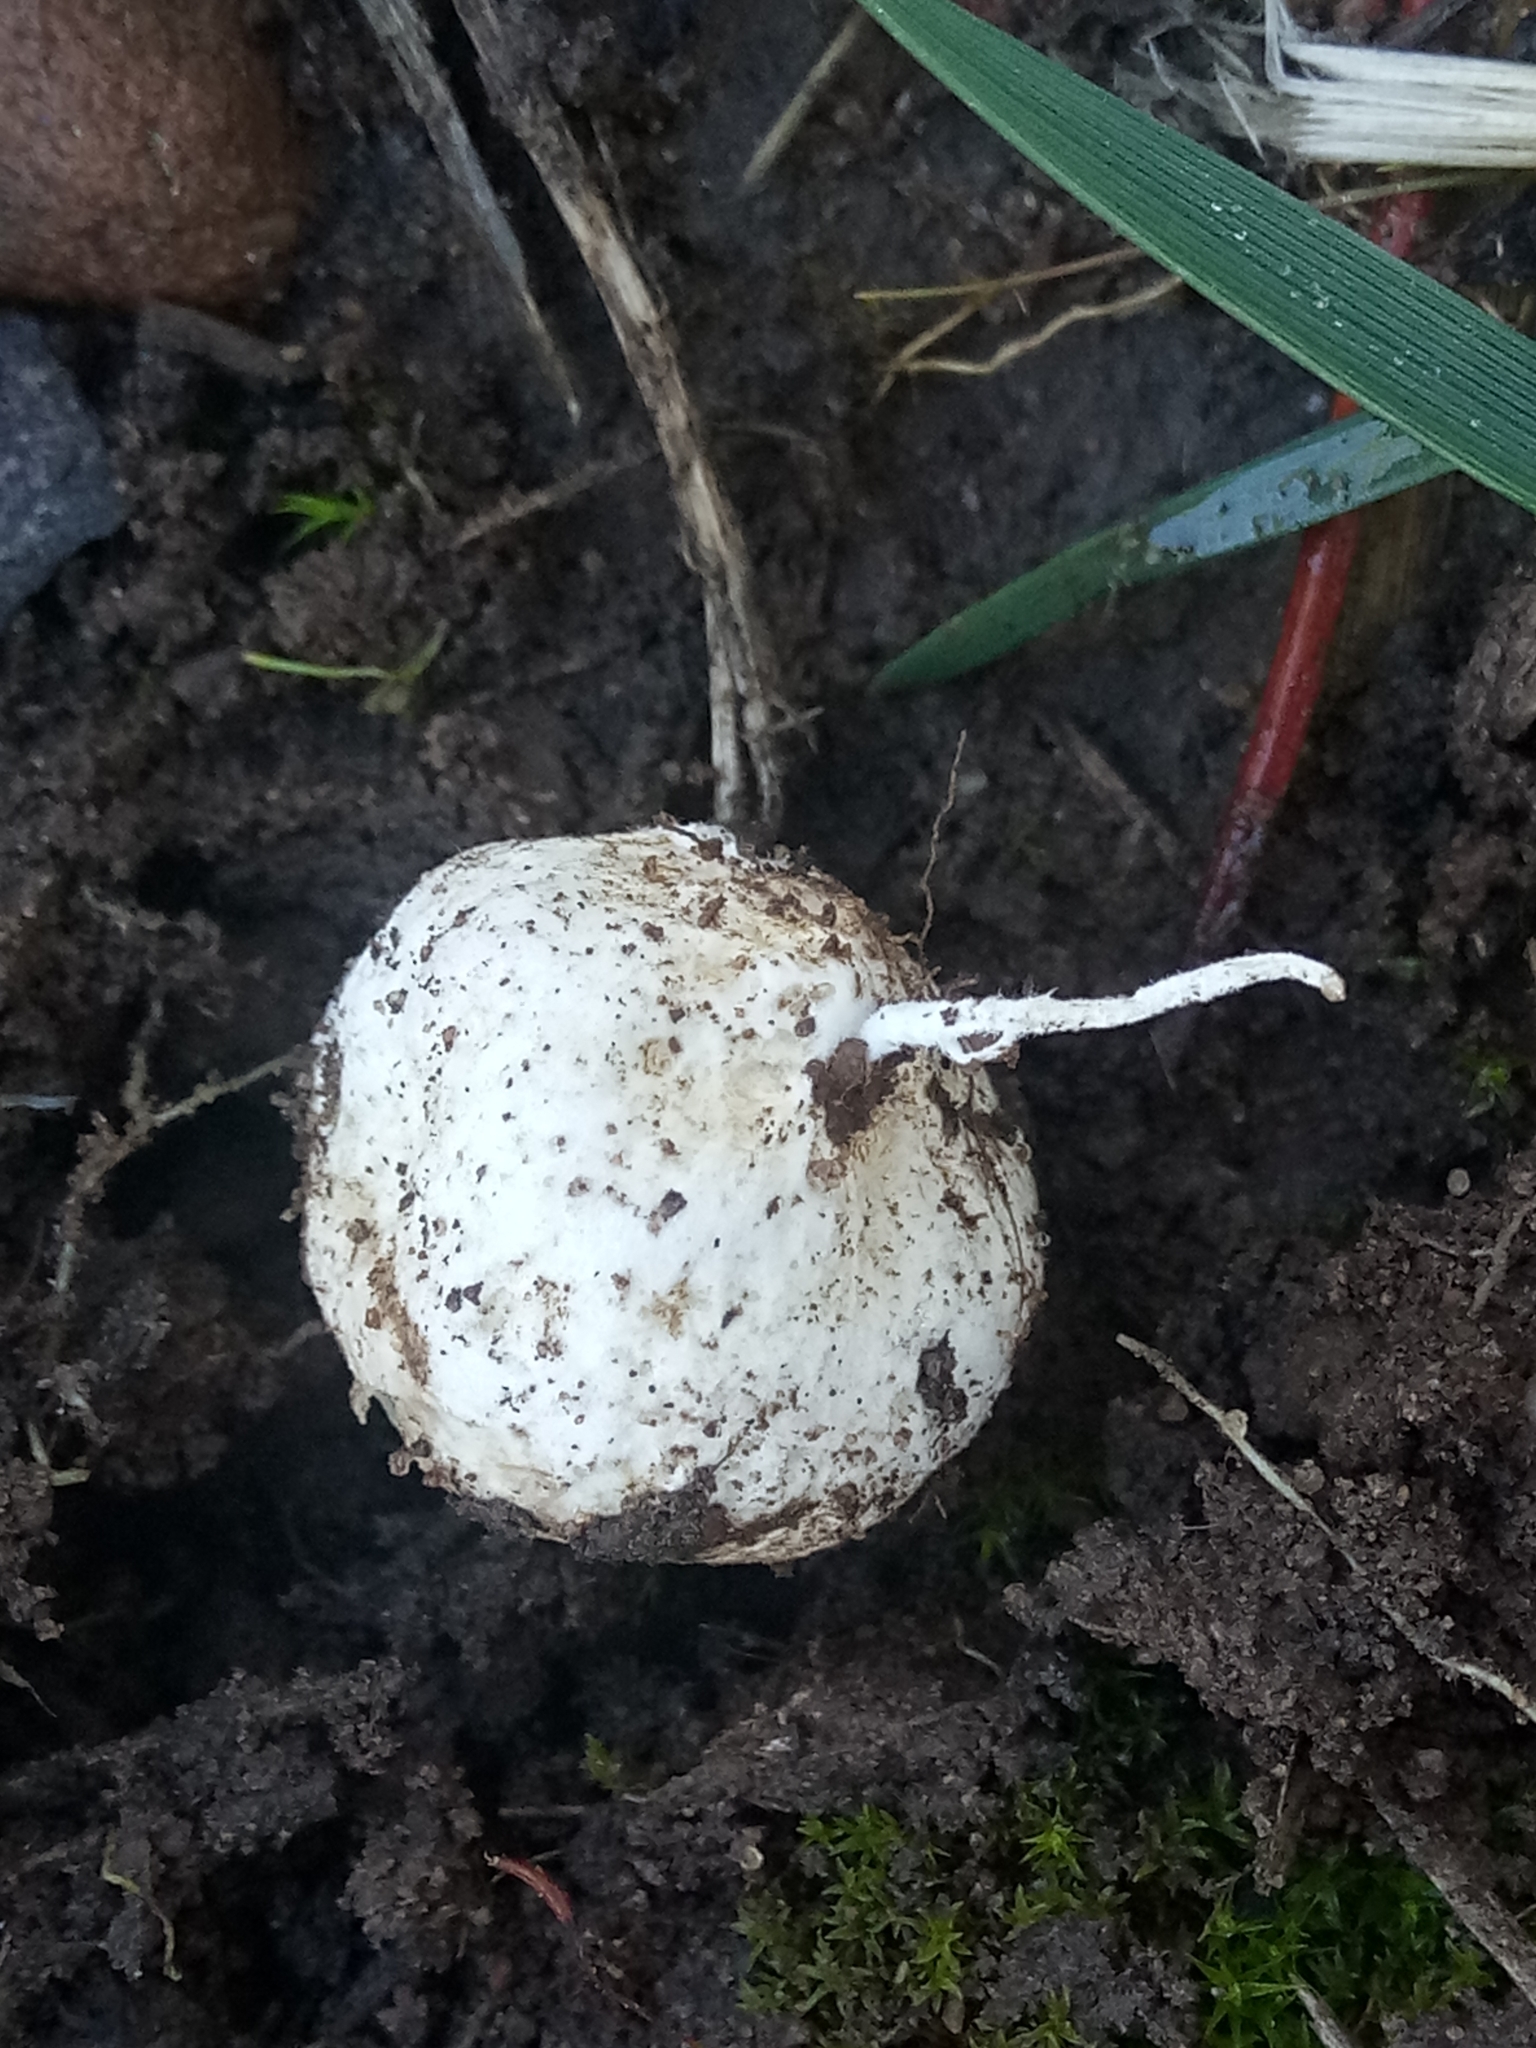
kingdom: Fungi
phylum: Basidiomycota
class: Agaricomycetes
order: Agaricales
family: Lycoperdaceae
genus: Lycoperdon
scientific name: Lycoperdon pratense
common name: Meadow puffball
